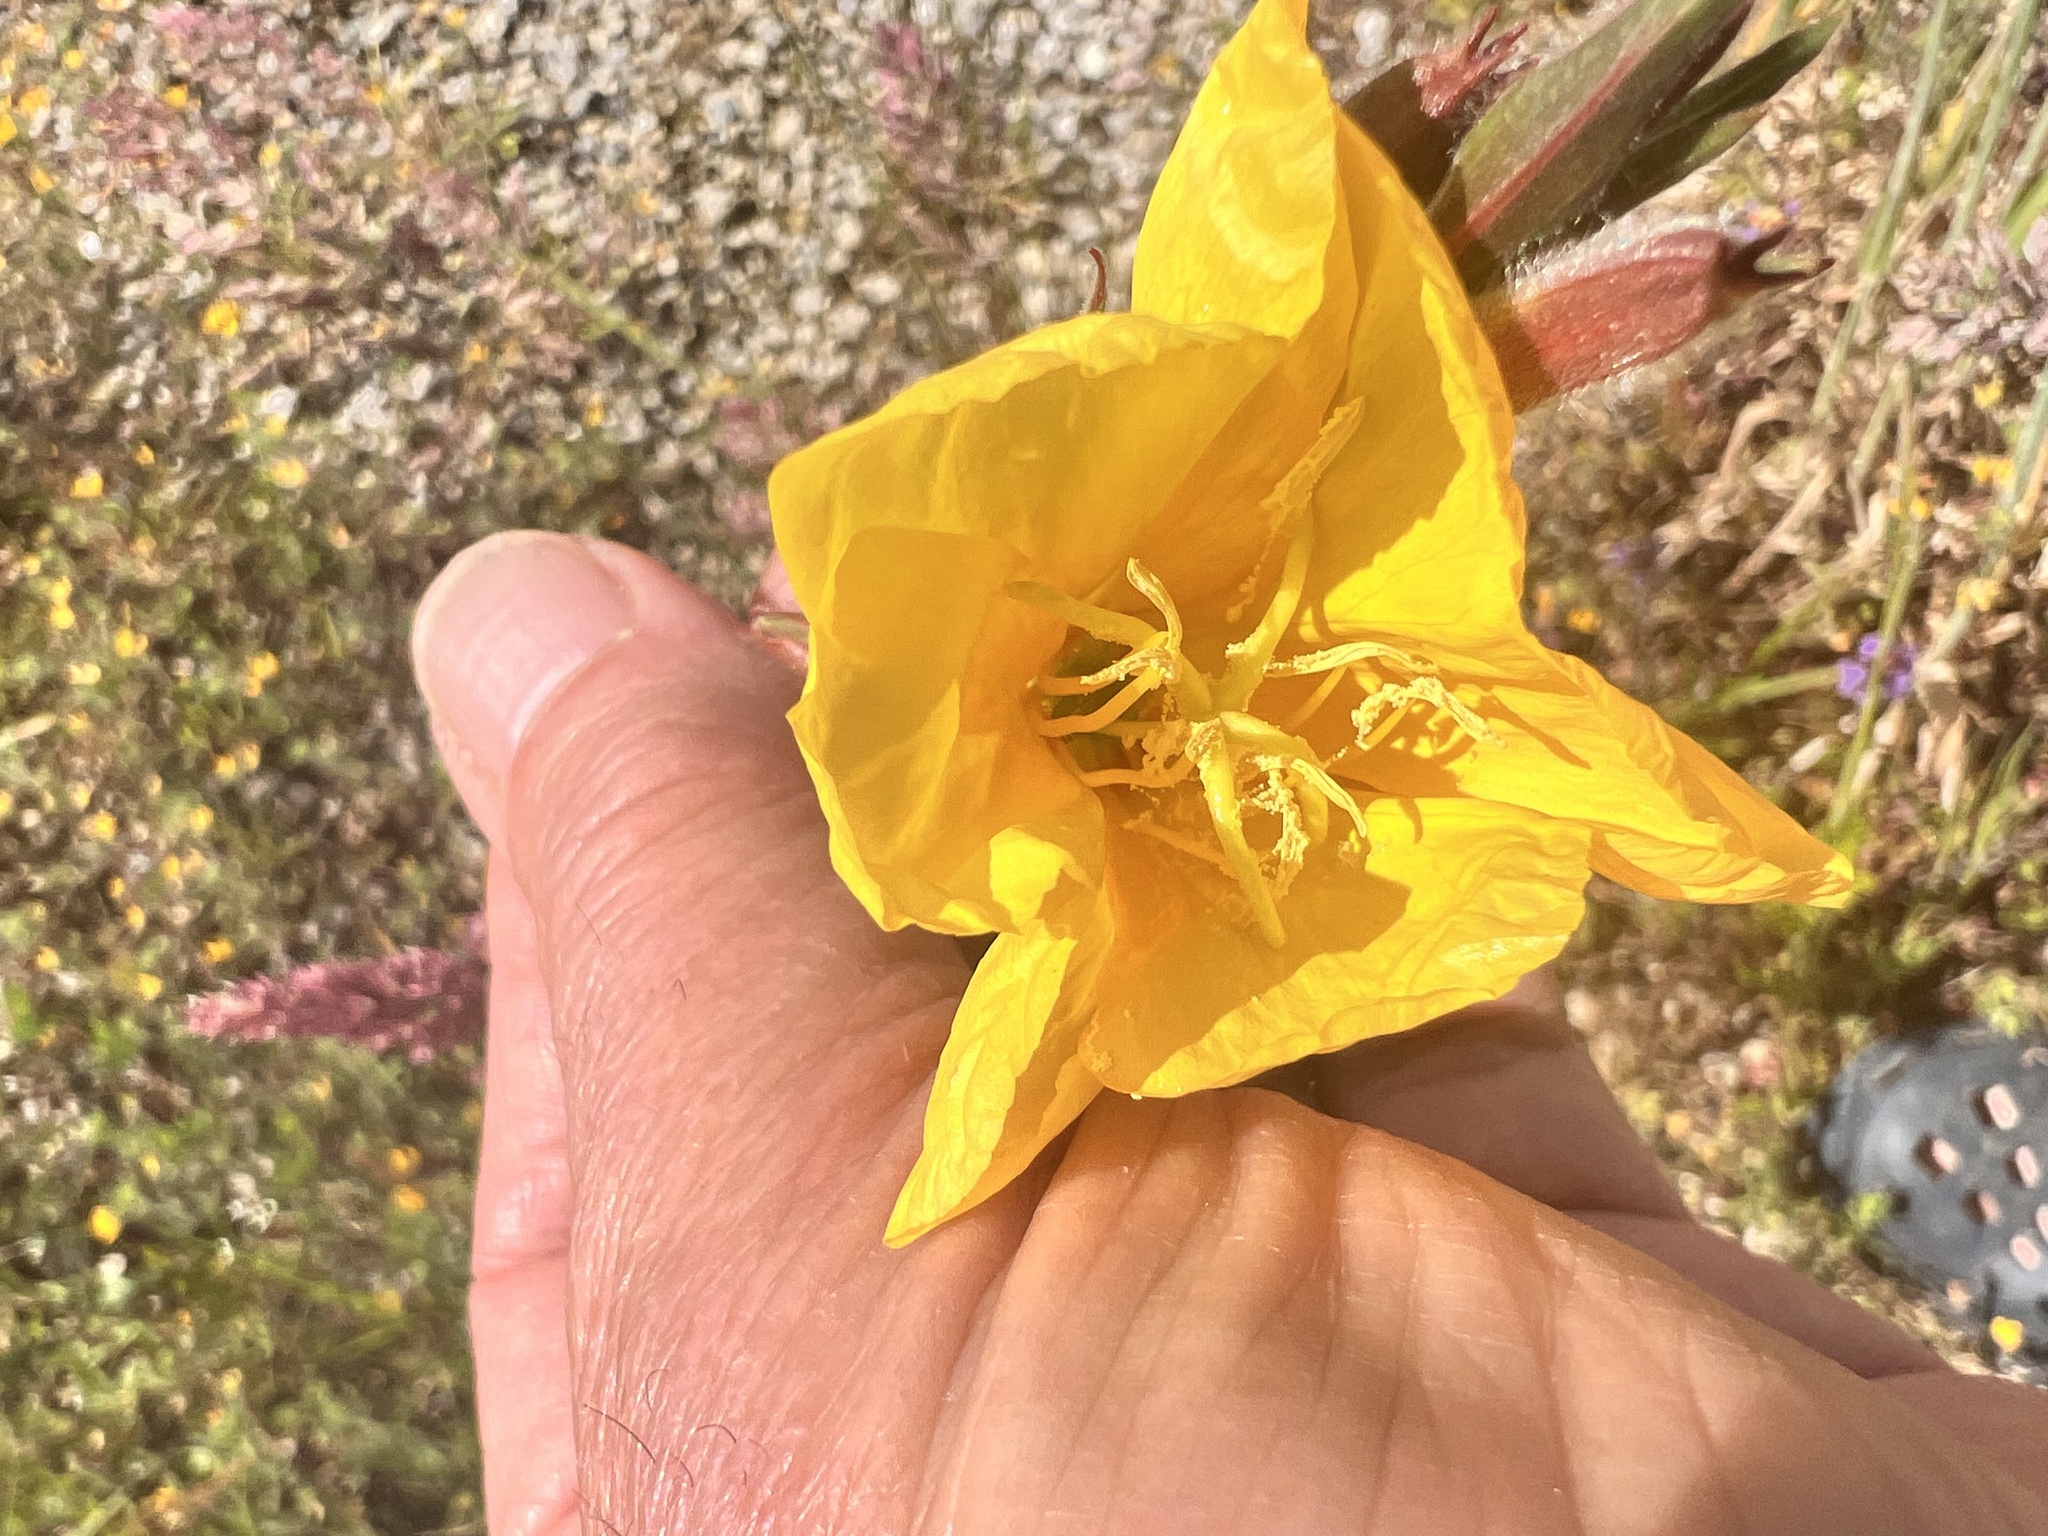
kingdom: Plantae
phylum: Tracheophyta
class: Magnoliopsida
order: Myrtales
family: Onagraceae
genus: Oenothera
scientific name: Oenothera stricta
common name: Fragrant evening-primrose
